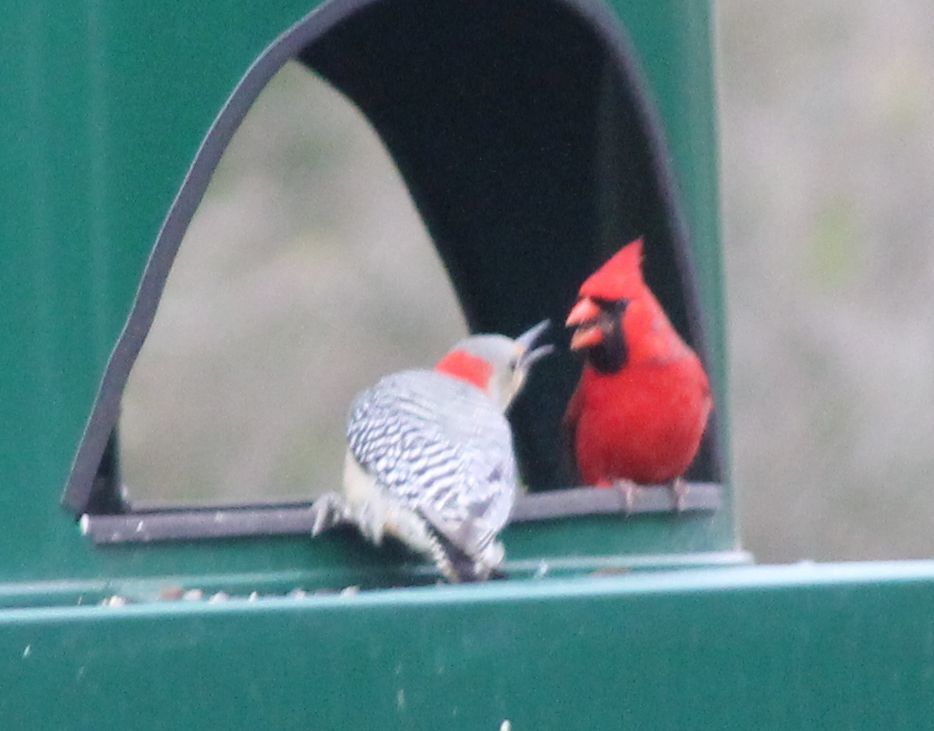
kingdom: Animalia
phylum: Chordata
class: Aves
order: Piciformes
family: Picidae
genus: Melanerpes
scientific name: Melanerpes carolinus
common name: Red-bellied woodpecker
